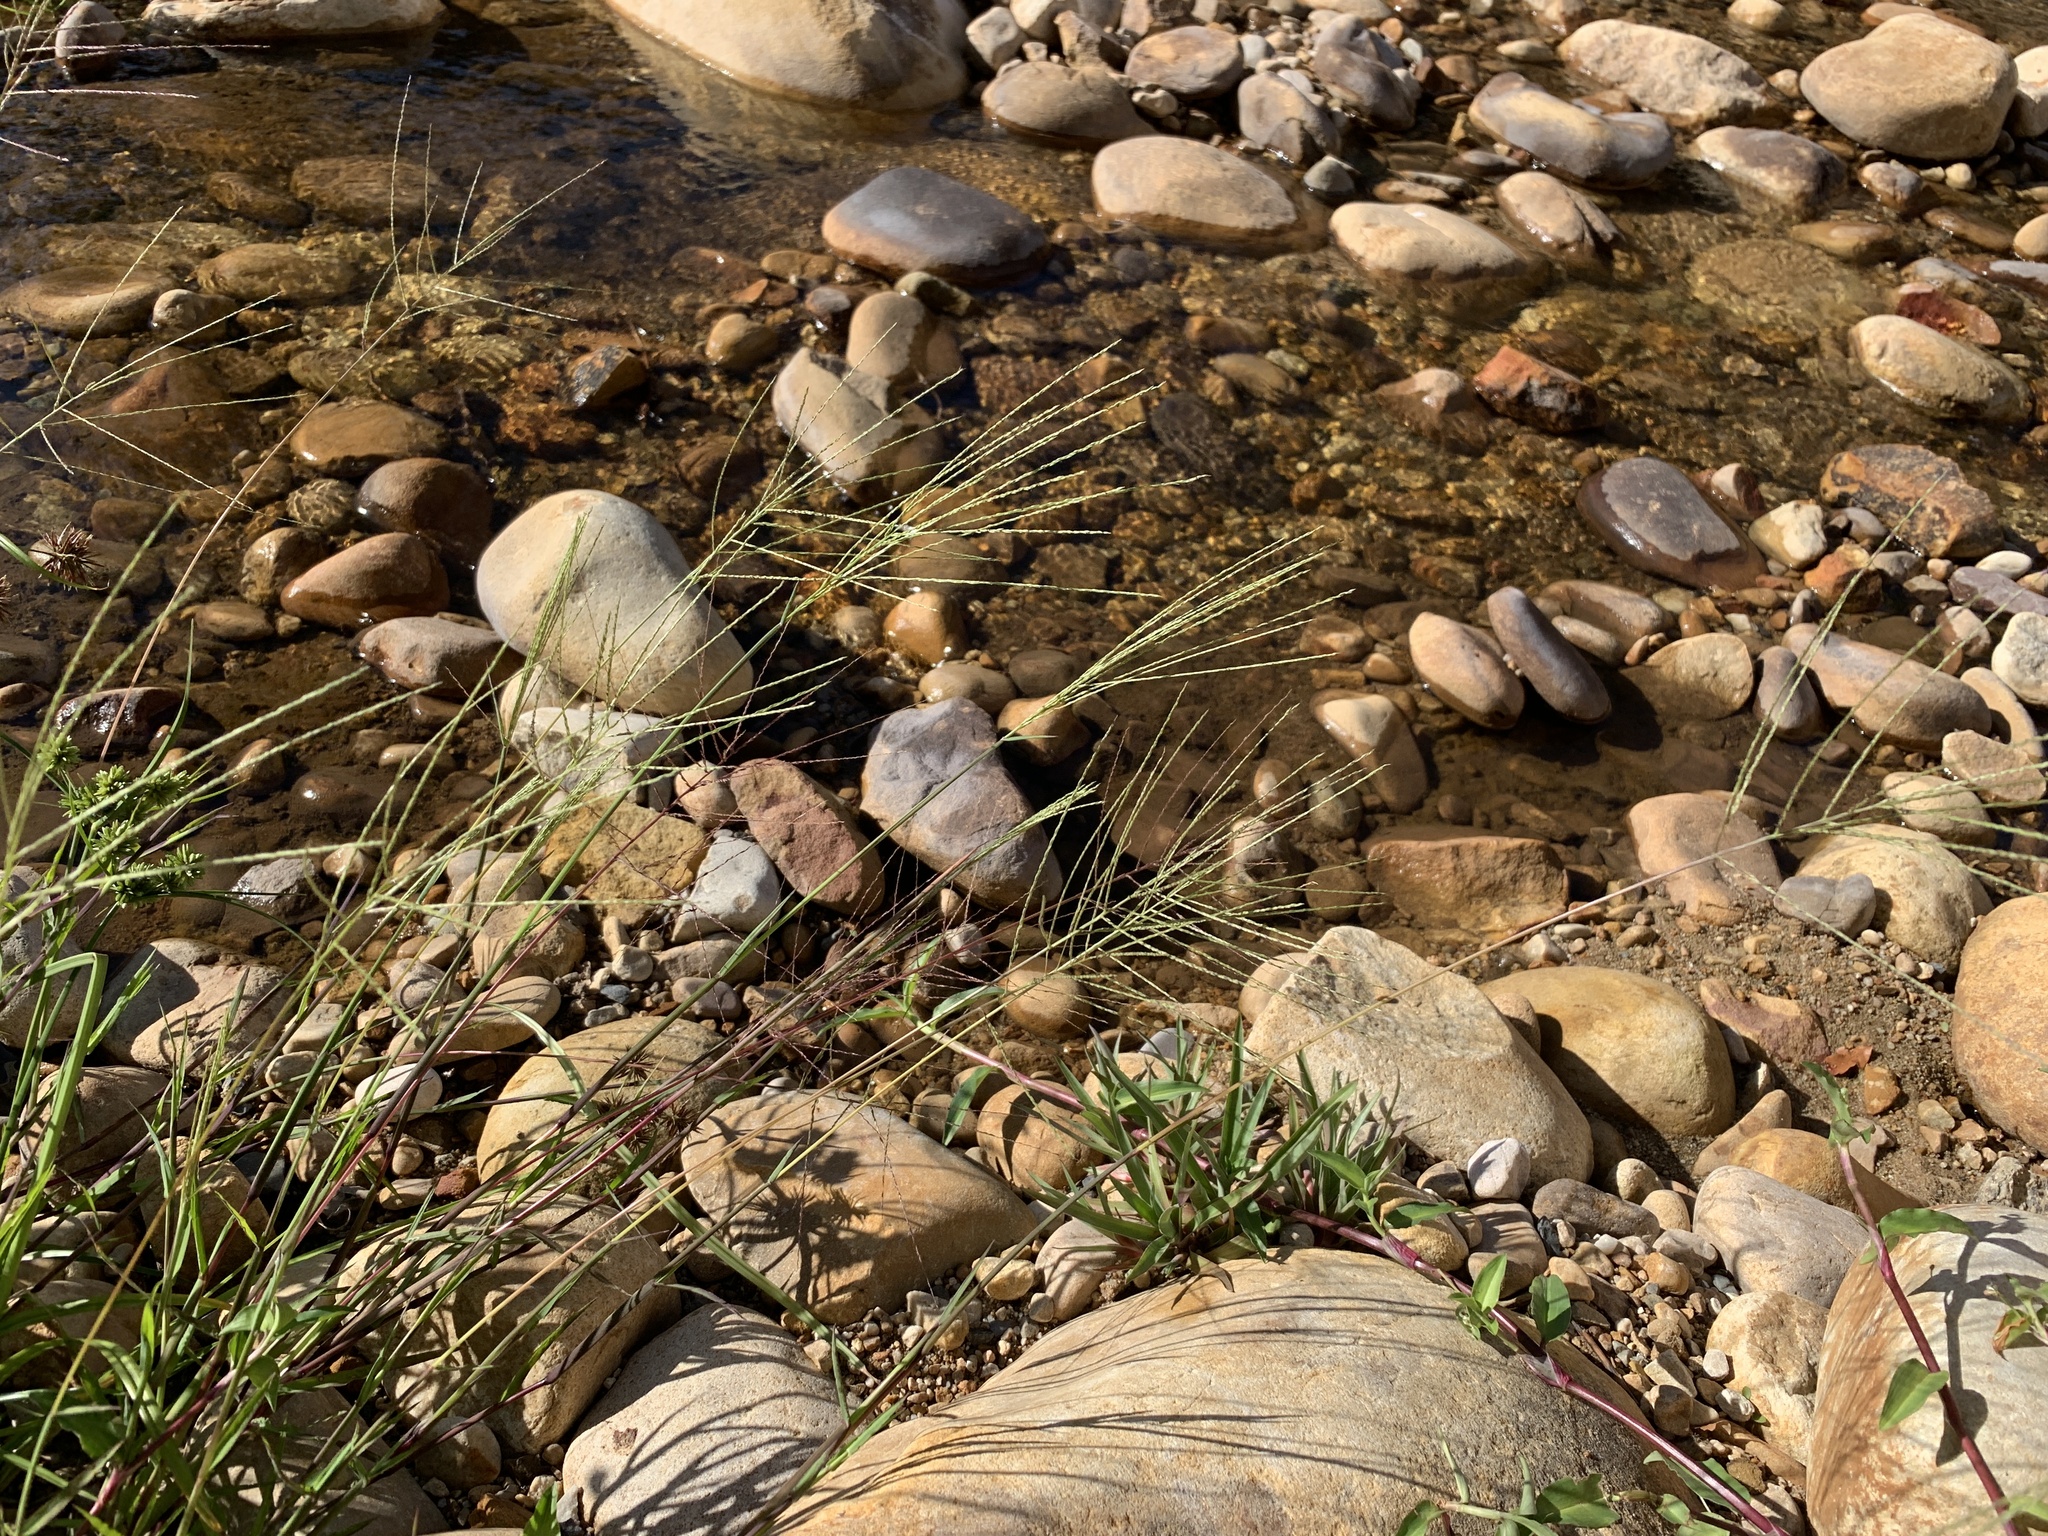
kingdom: Plantae
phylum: Tracheophyta
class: Liliopsida
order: Poales
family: Poaceae
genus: Digitaria
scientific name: Digitaria sanguinalis
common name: Hairy crabgrass
